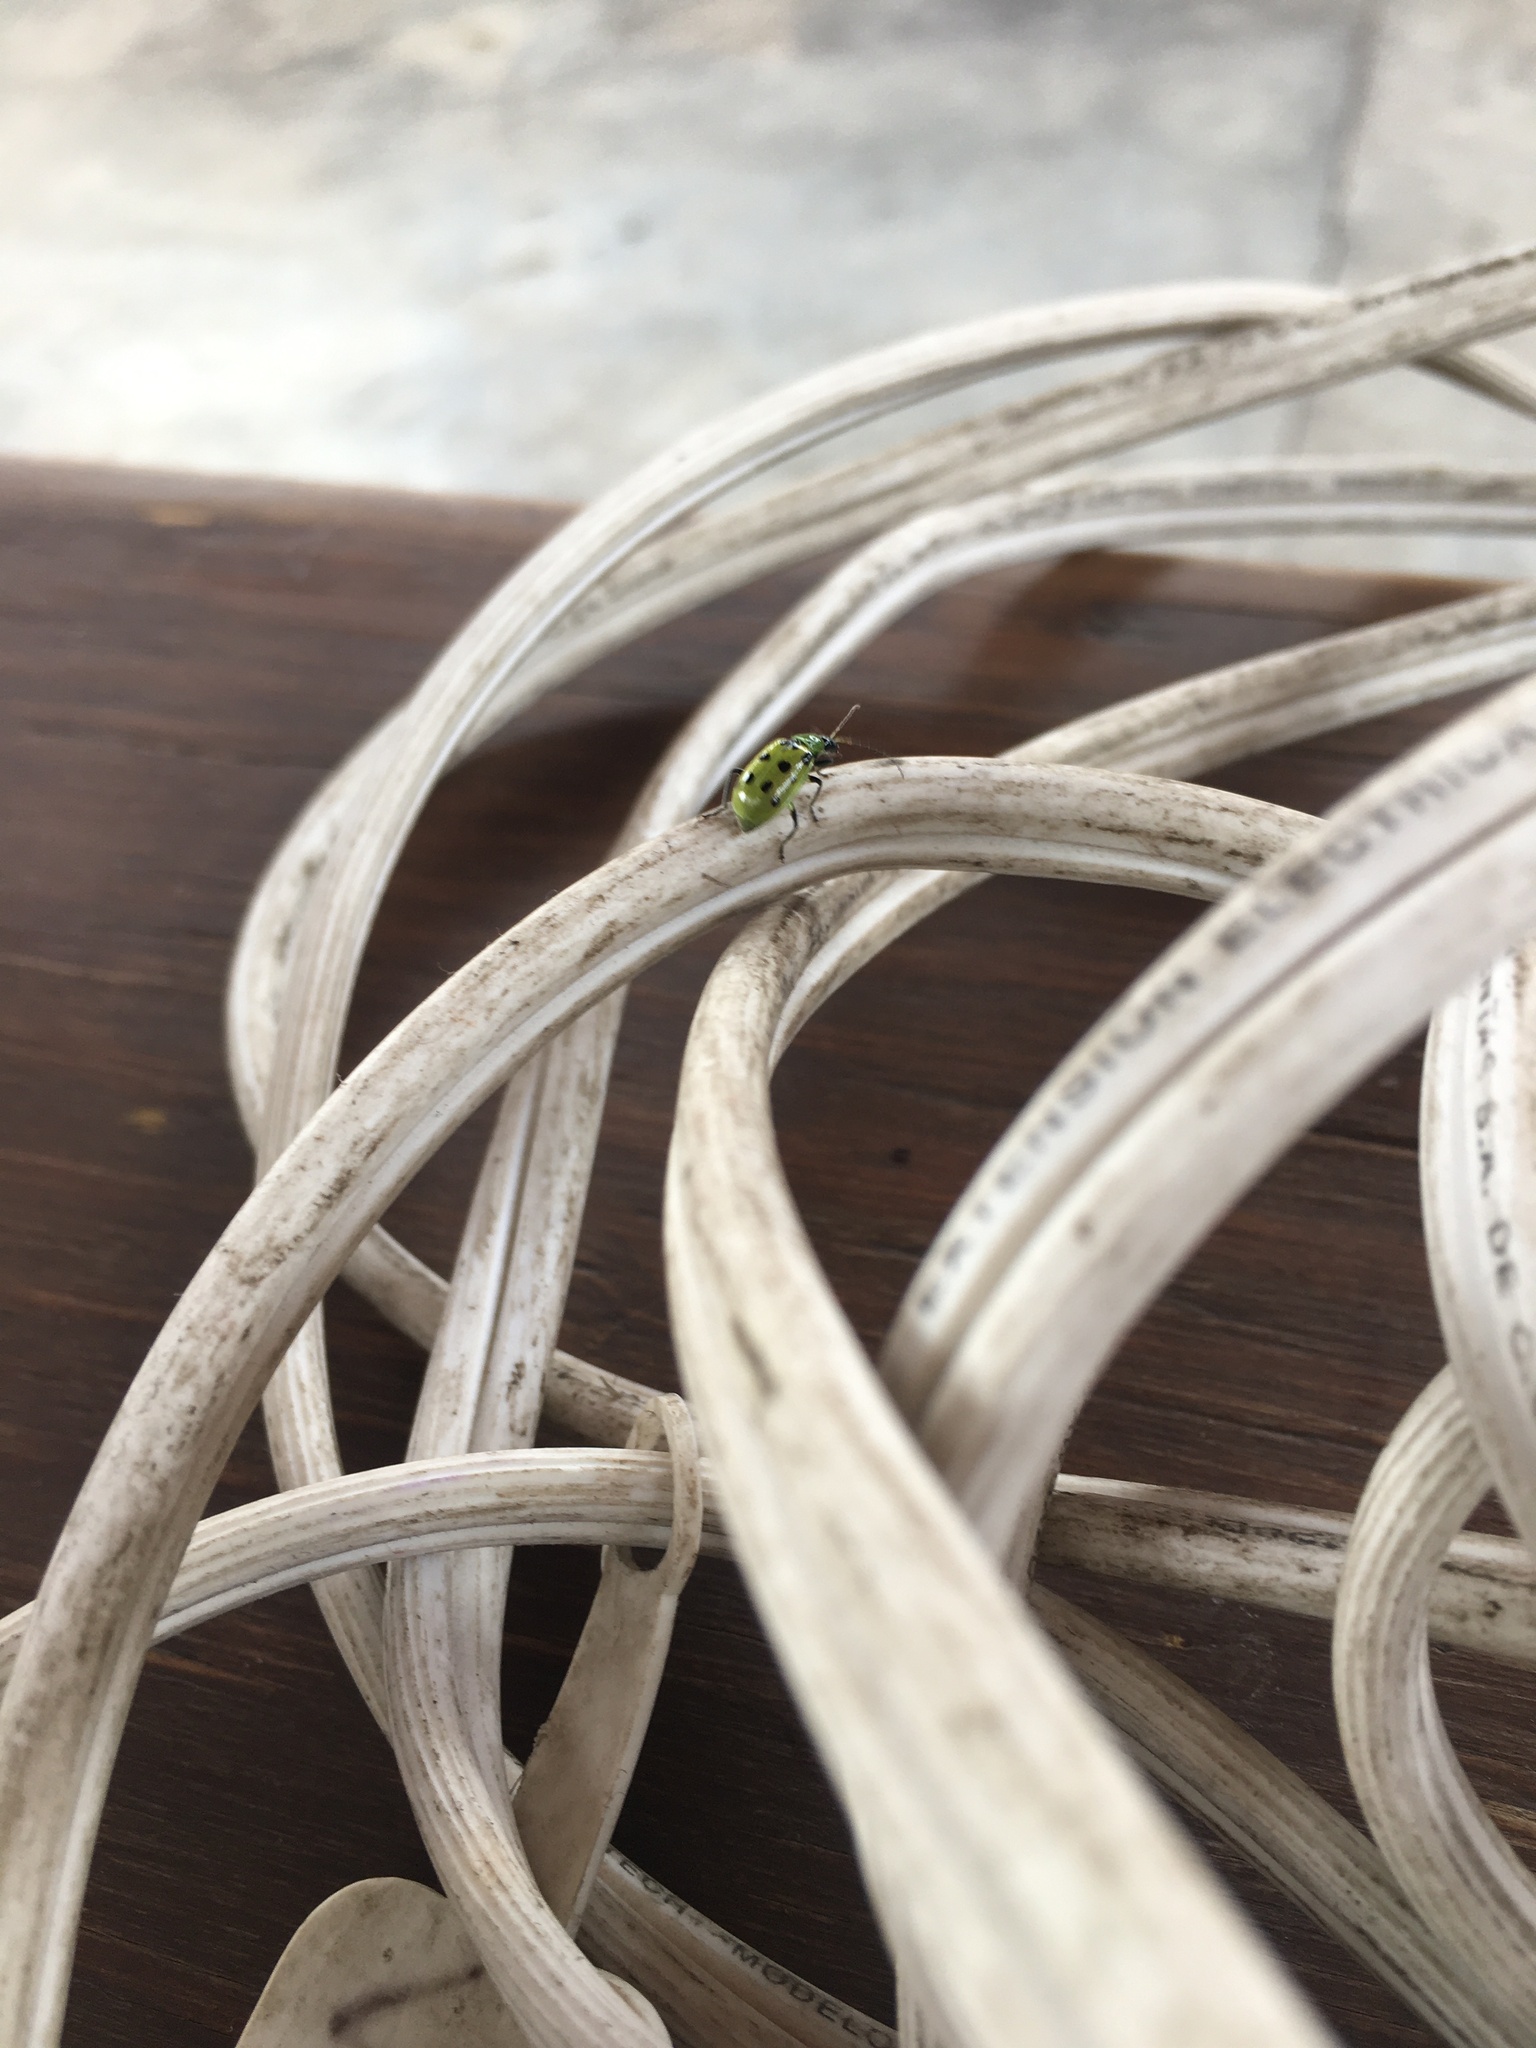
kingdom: Animalia
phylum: Arthropoda
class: Insecta
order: Coleoptera
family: Chrysomelidae
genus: Diabrotica
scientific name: Diabrotica undecimpunctata
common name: Spotted cucumber beetle
